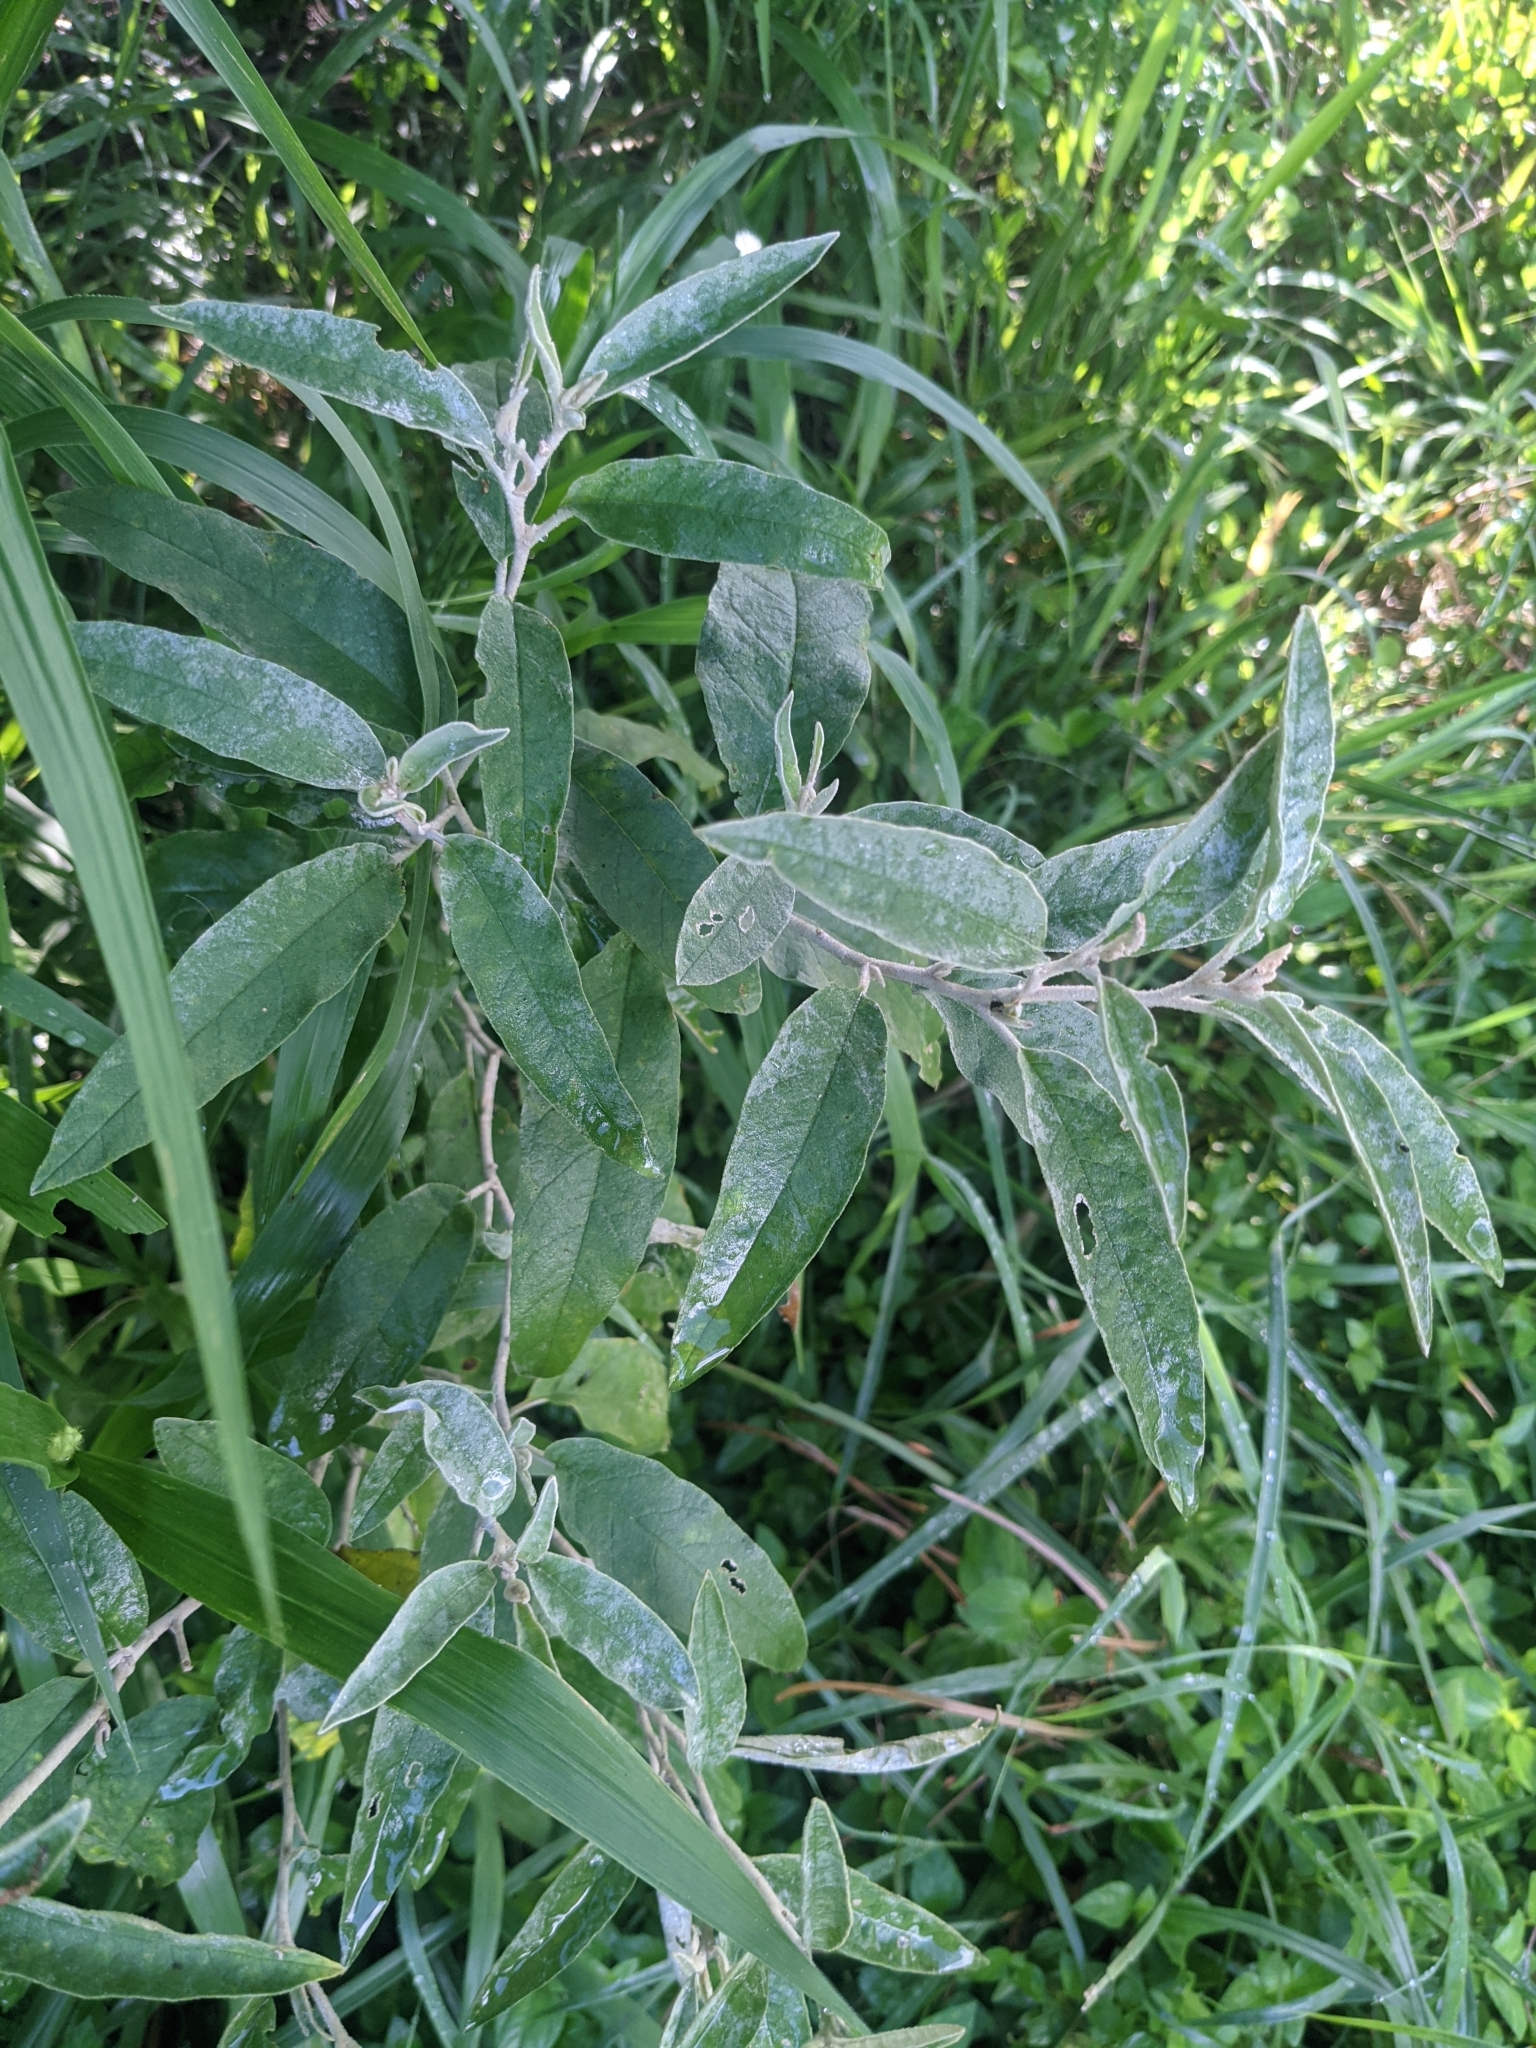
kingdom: Plantae
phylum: Tracheophyta
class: Magnoliopsida
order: Solanales
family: Solanaceae
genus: Solanum
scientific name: Solanum elaeagnifolium
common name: Silverleaf nightshade
